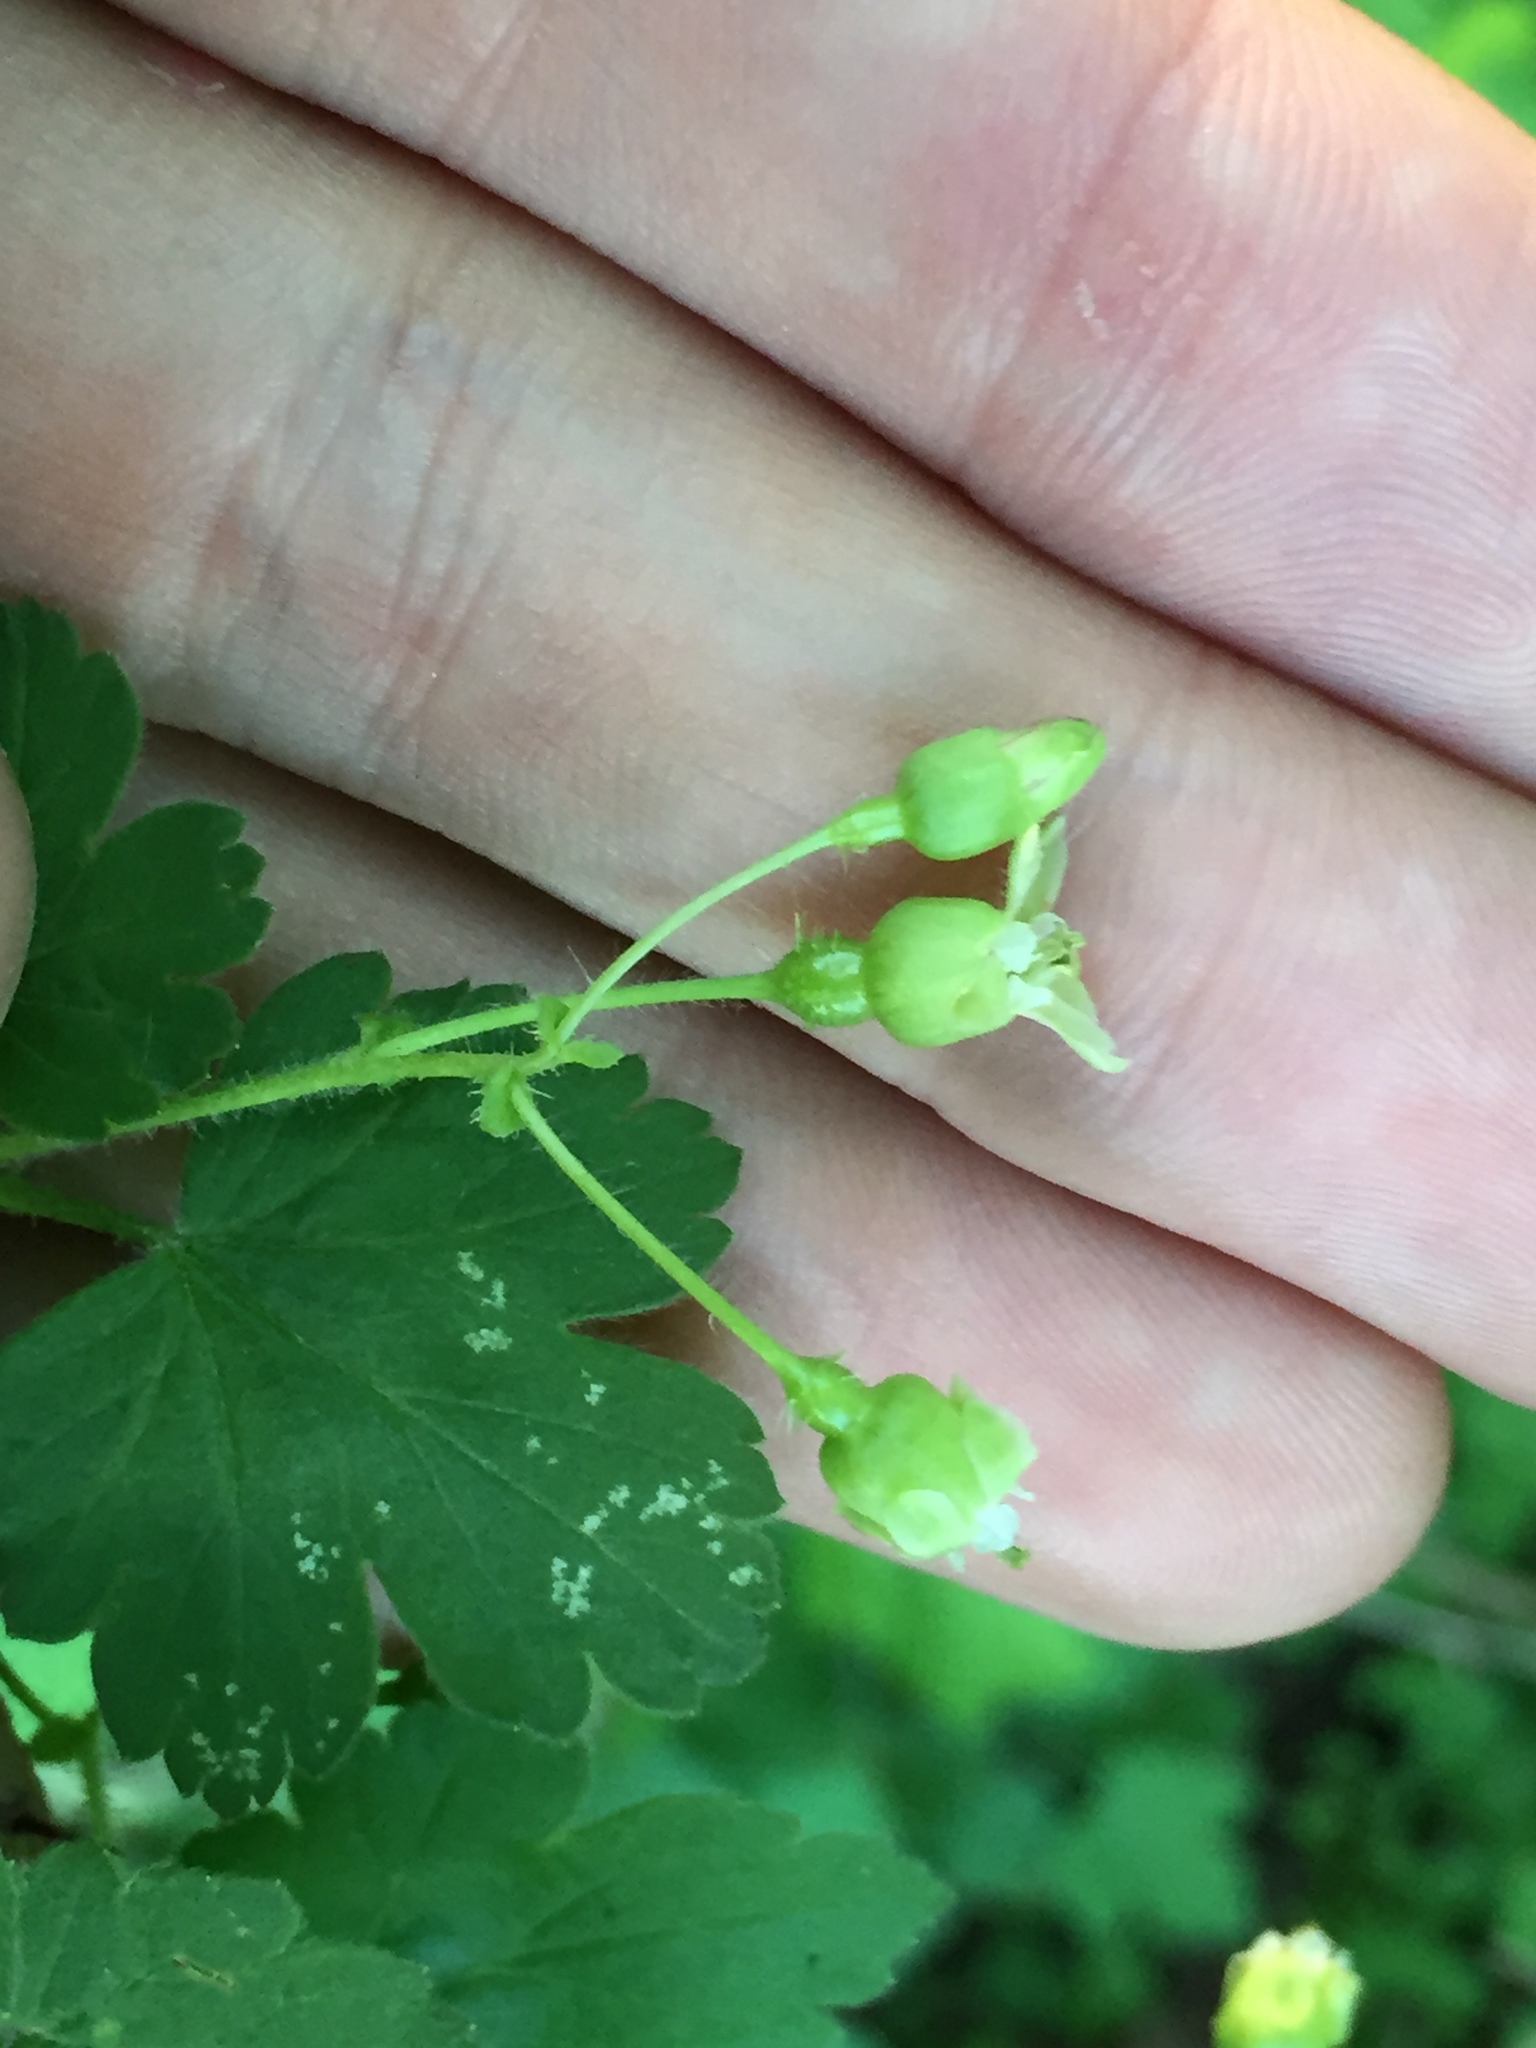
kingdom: Plantae
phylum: Tracheophyta
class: Magnoliopsida
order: Saxifragales
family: Grossulariaceae
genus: Ribes
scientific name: Ribes cynosbati
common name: American gooseberry
